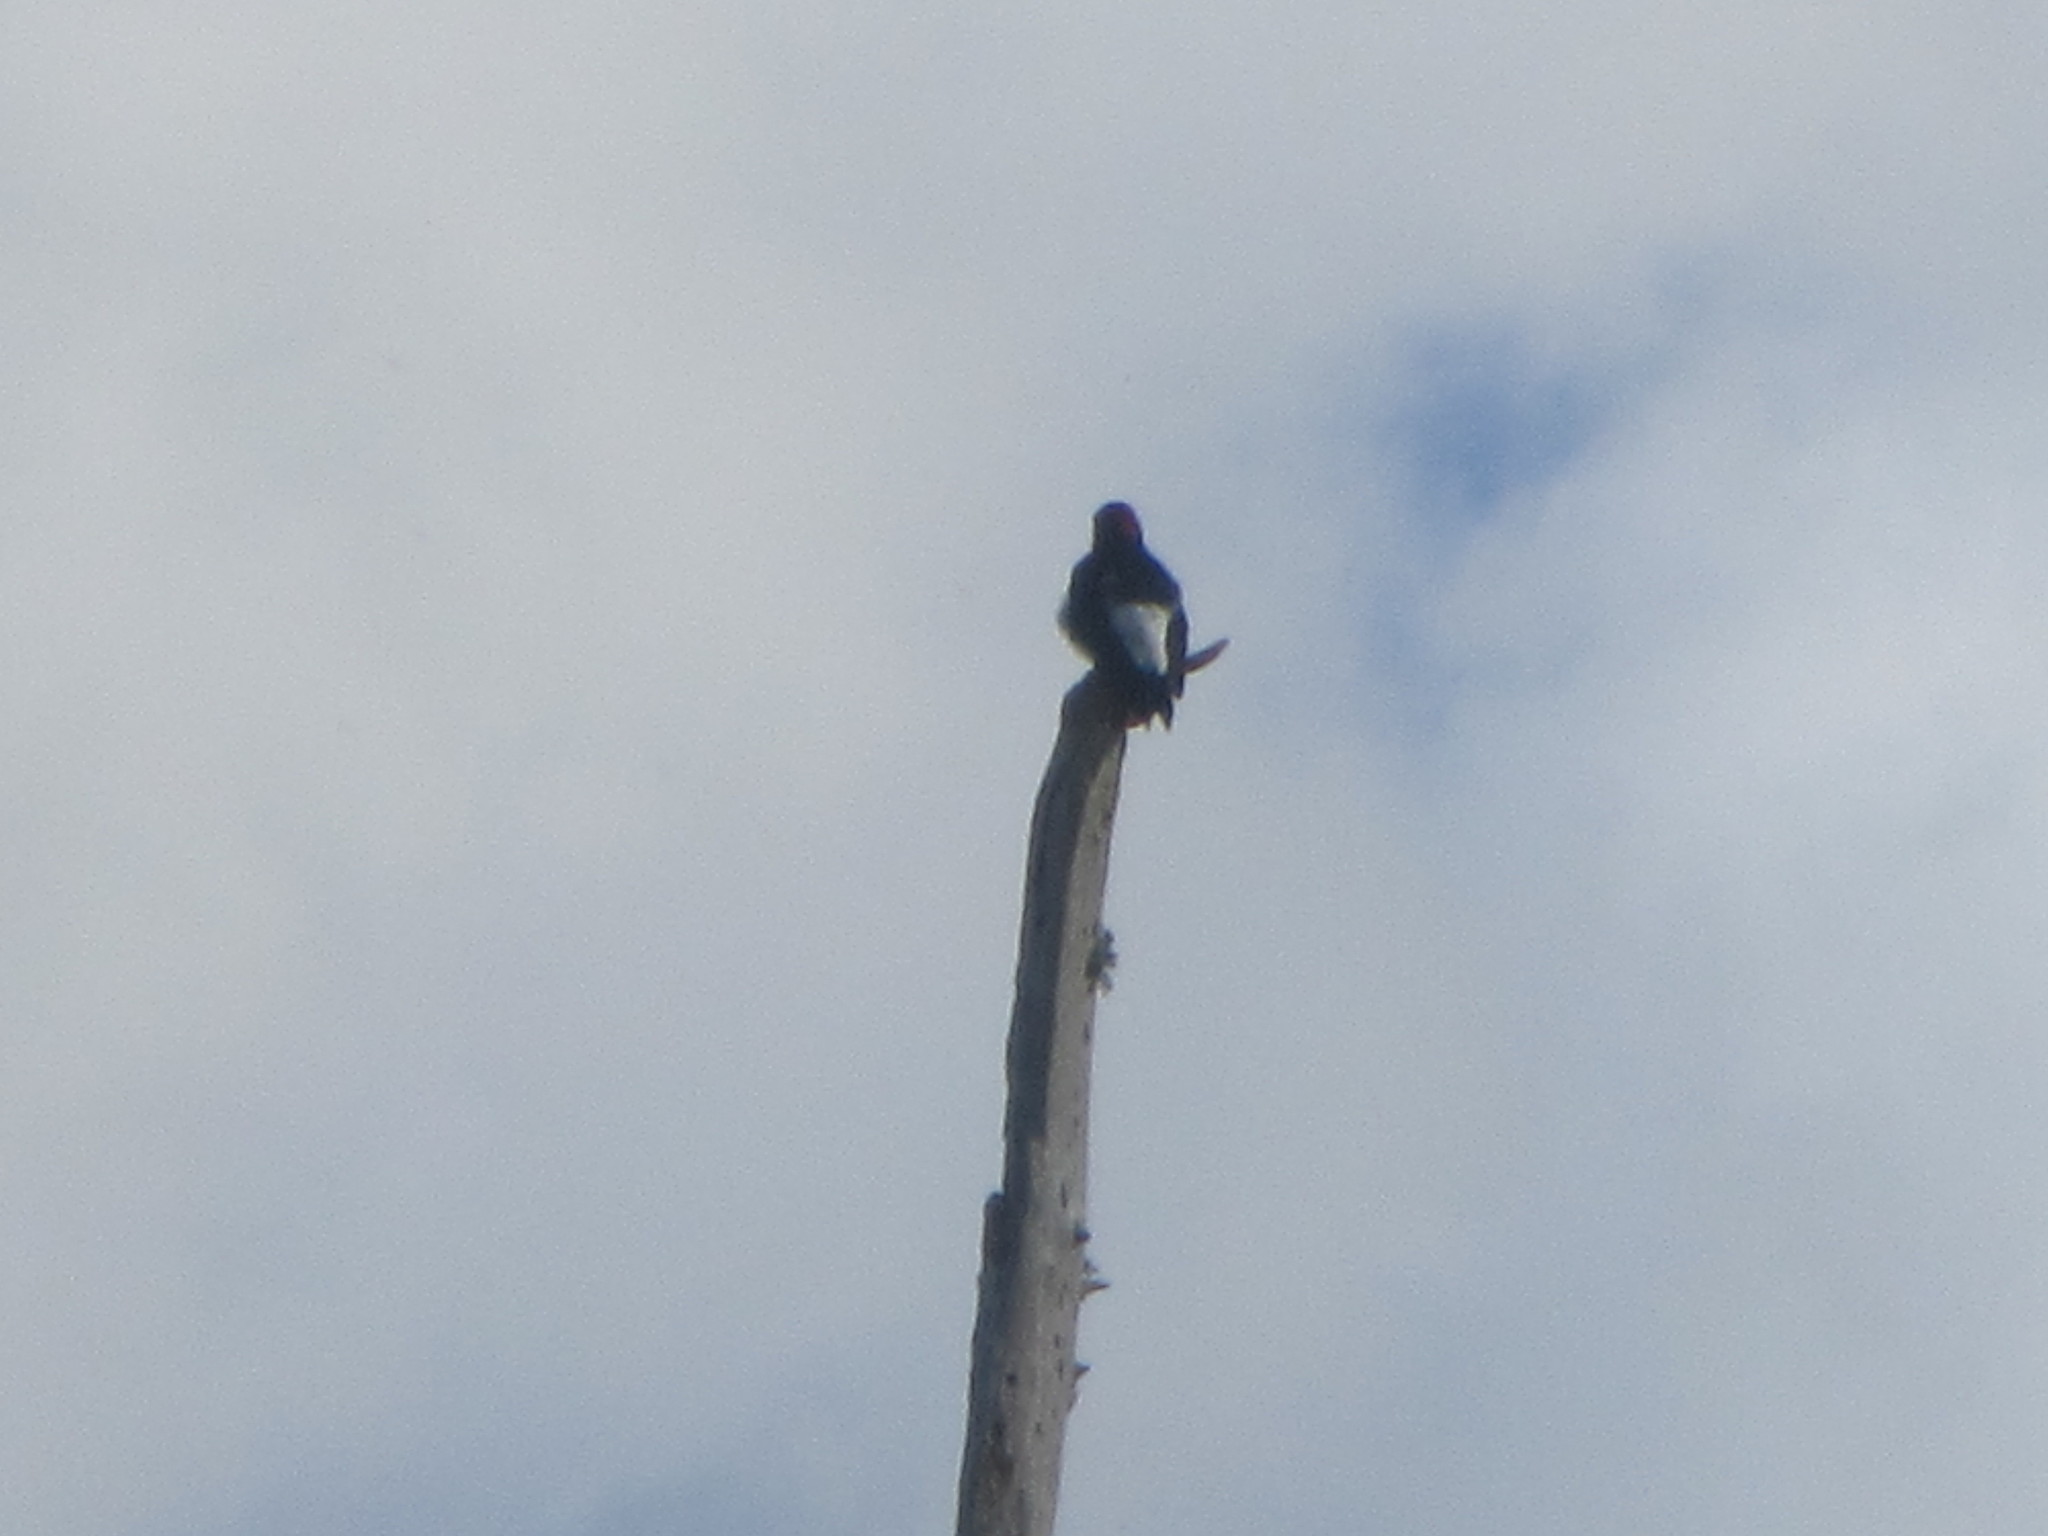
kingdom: Animalia
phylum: Chordata
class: Aves
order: Piciformes
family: Picidae
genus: Melanerpes
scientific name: Melanerpes formicivorus
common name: Acorn woodpecker
